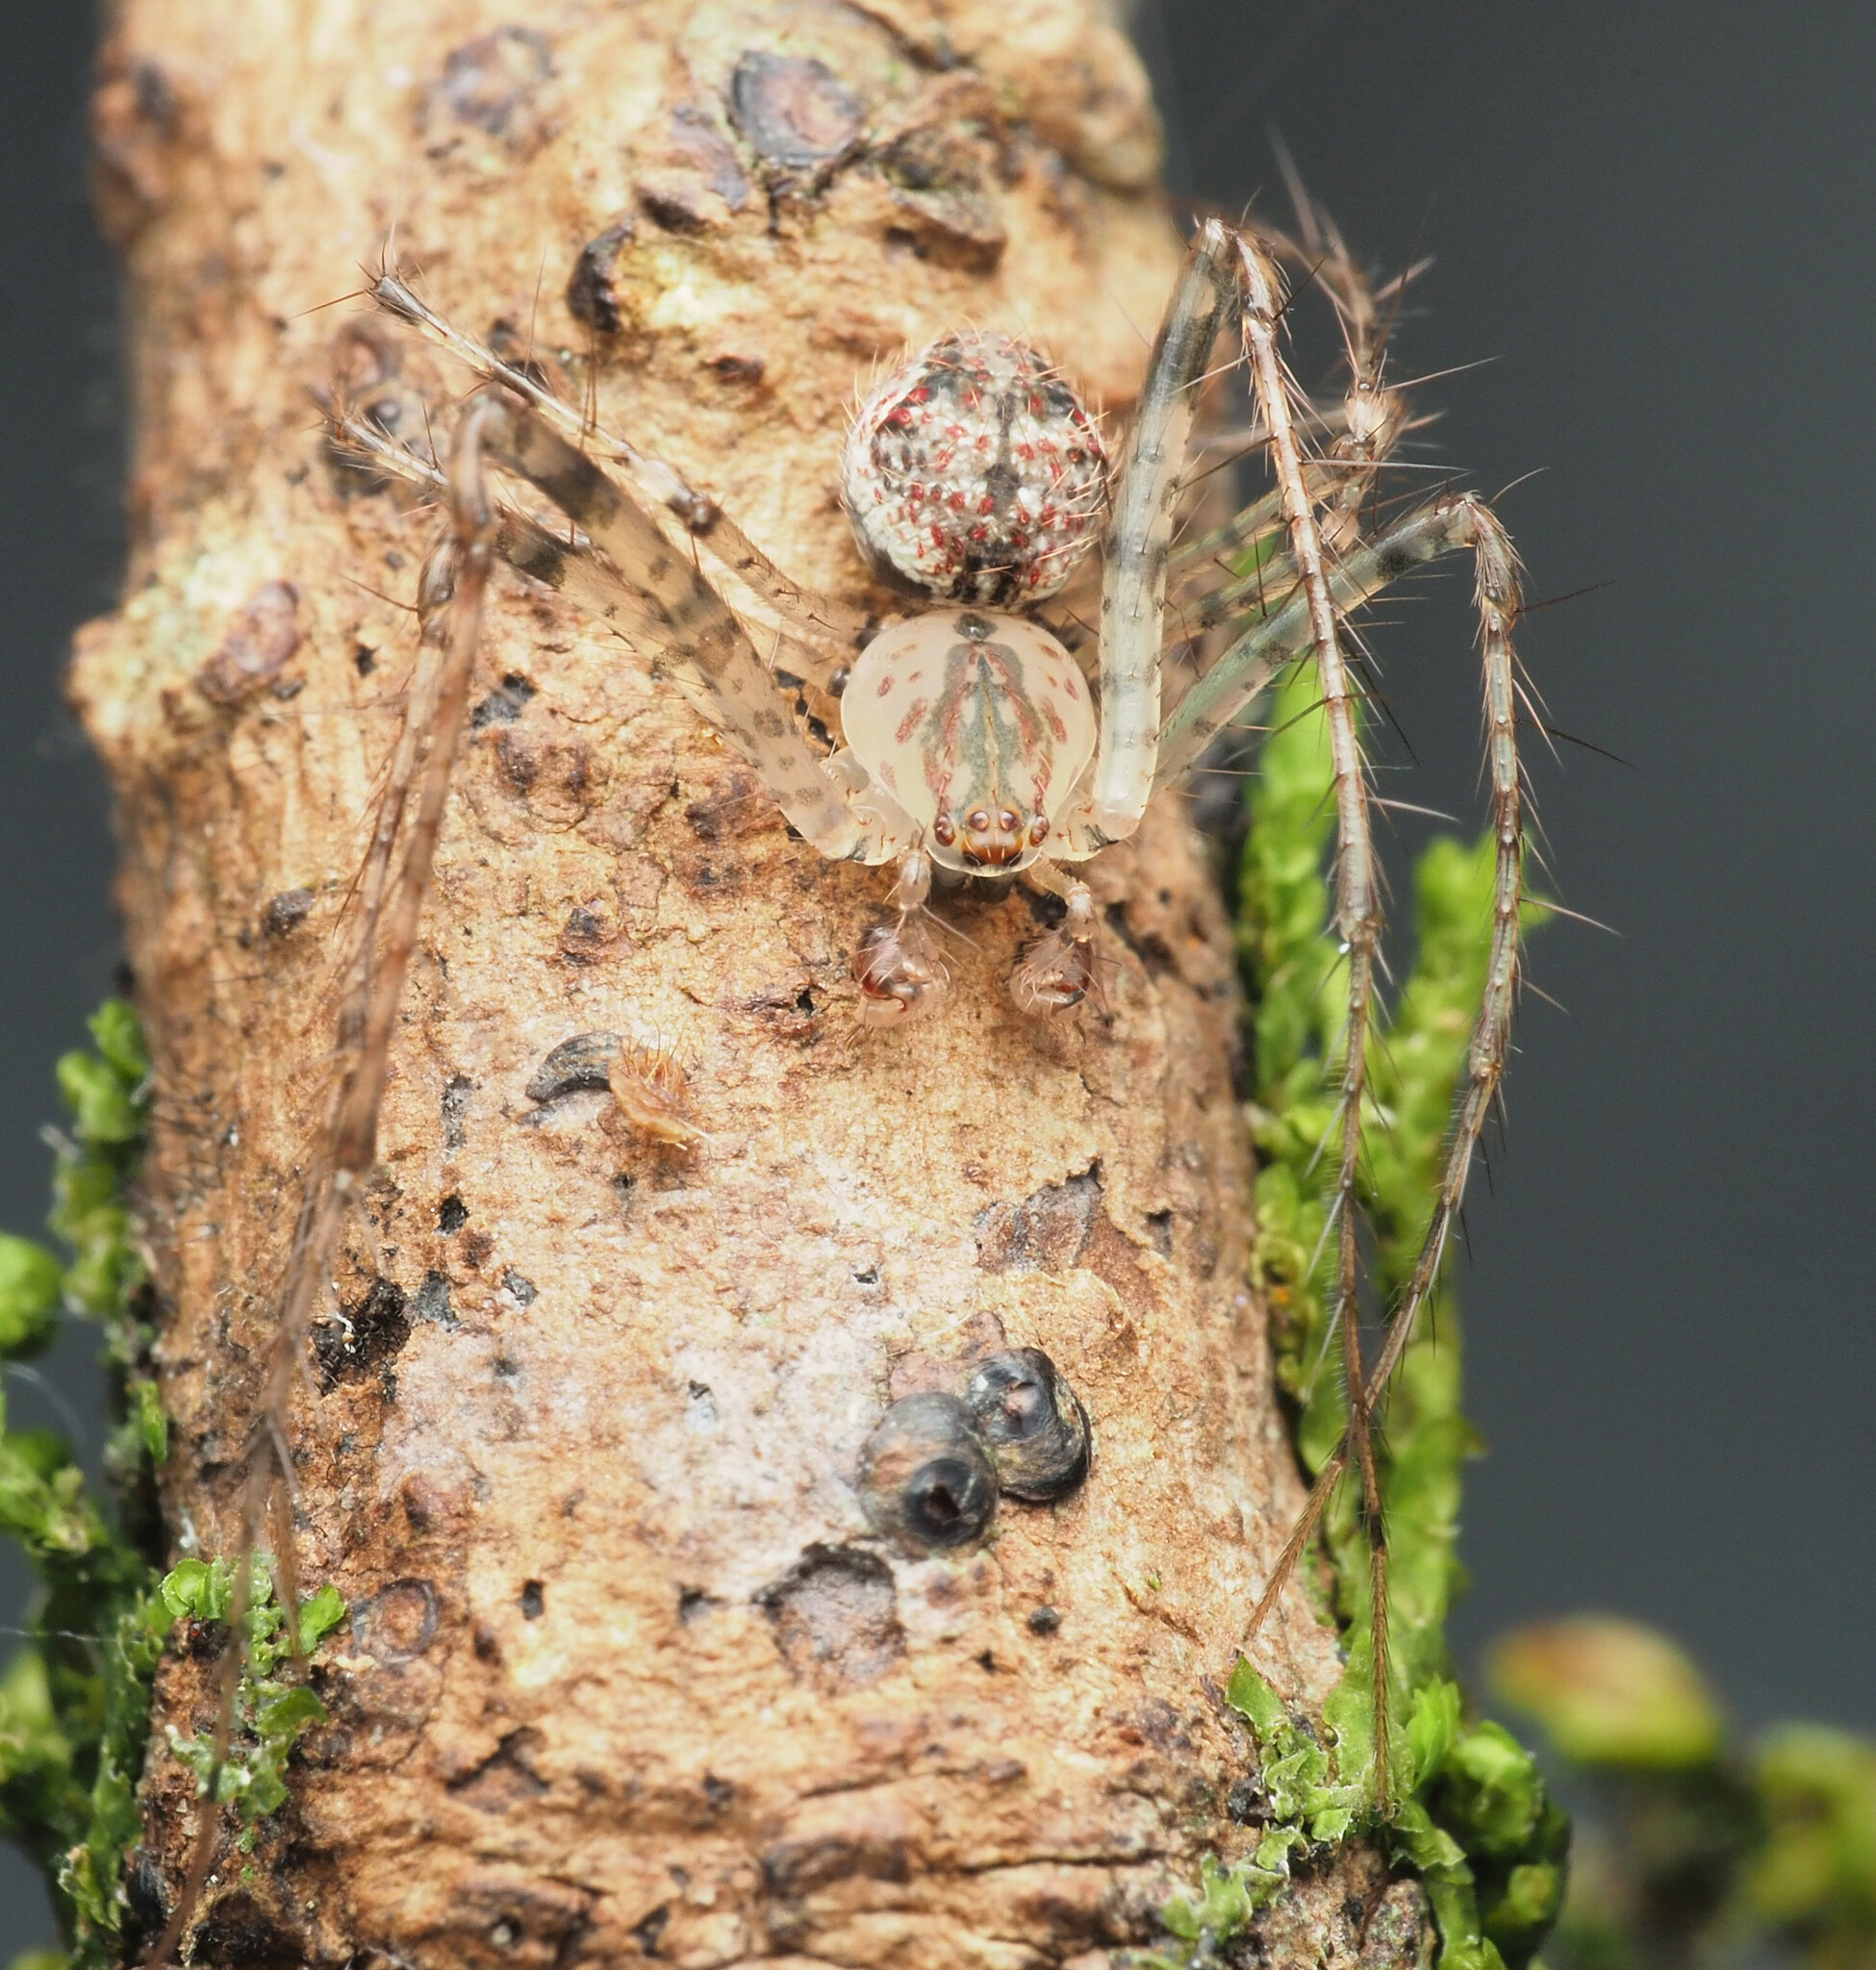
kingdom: Animalia
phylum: Arthropoda
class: Arachnida
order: Araneae
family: Mimetidae
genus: Australomimetus
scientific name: Australomimetus pseudomaculosus
